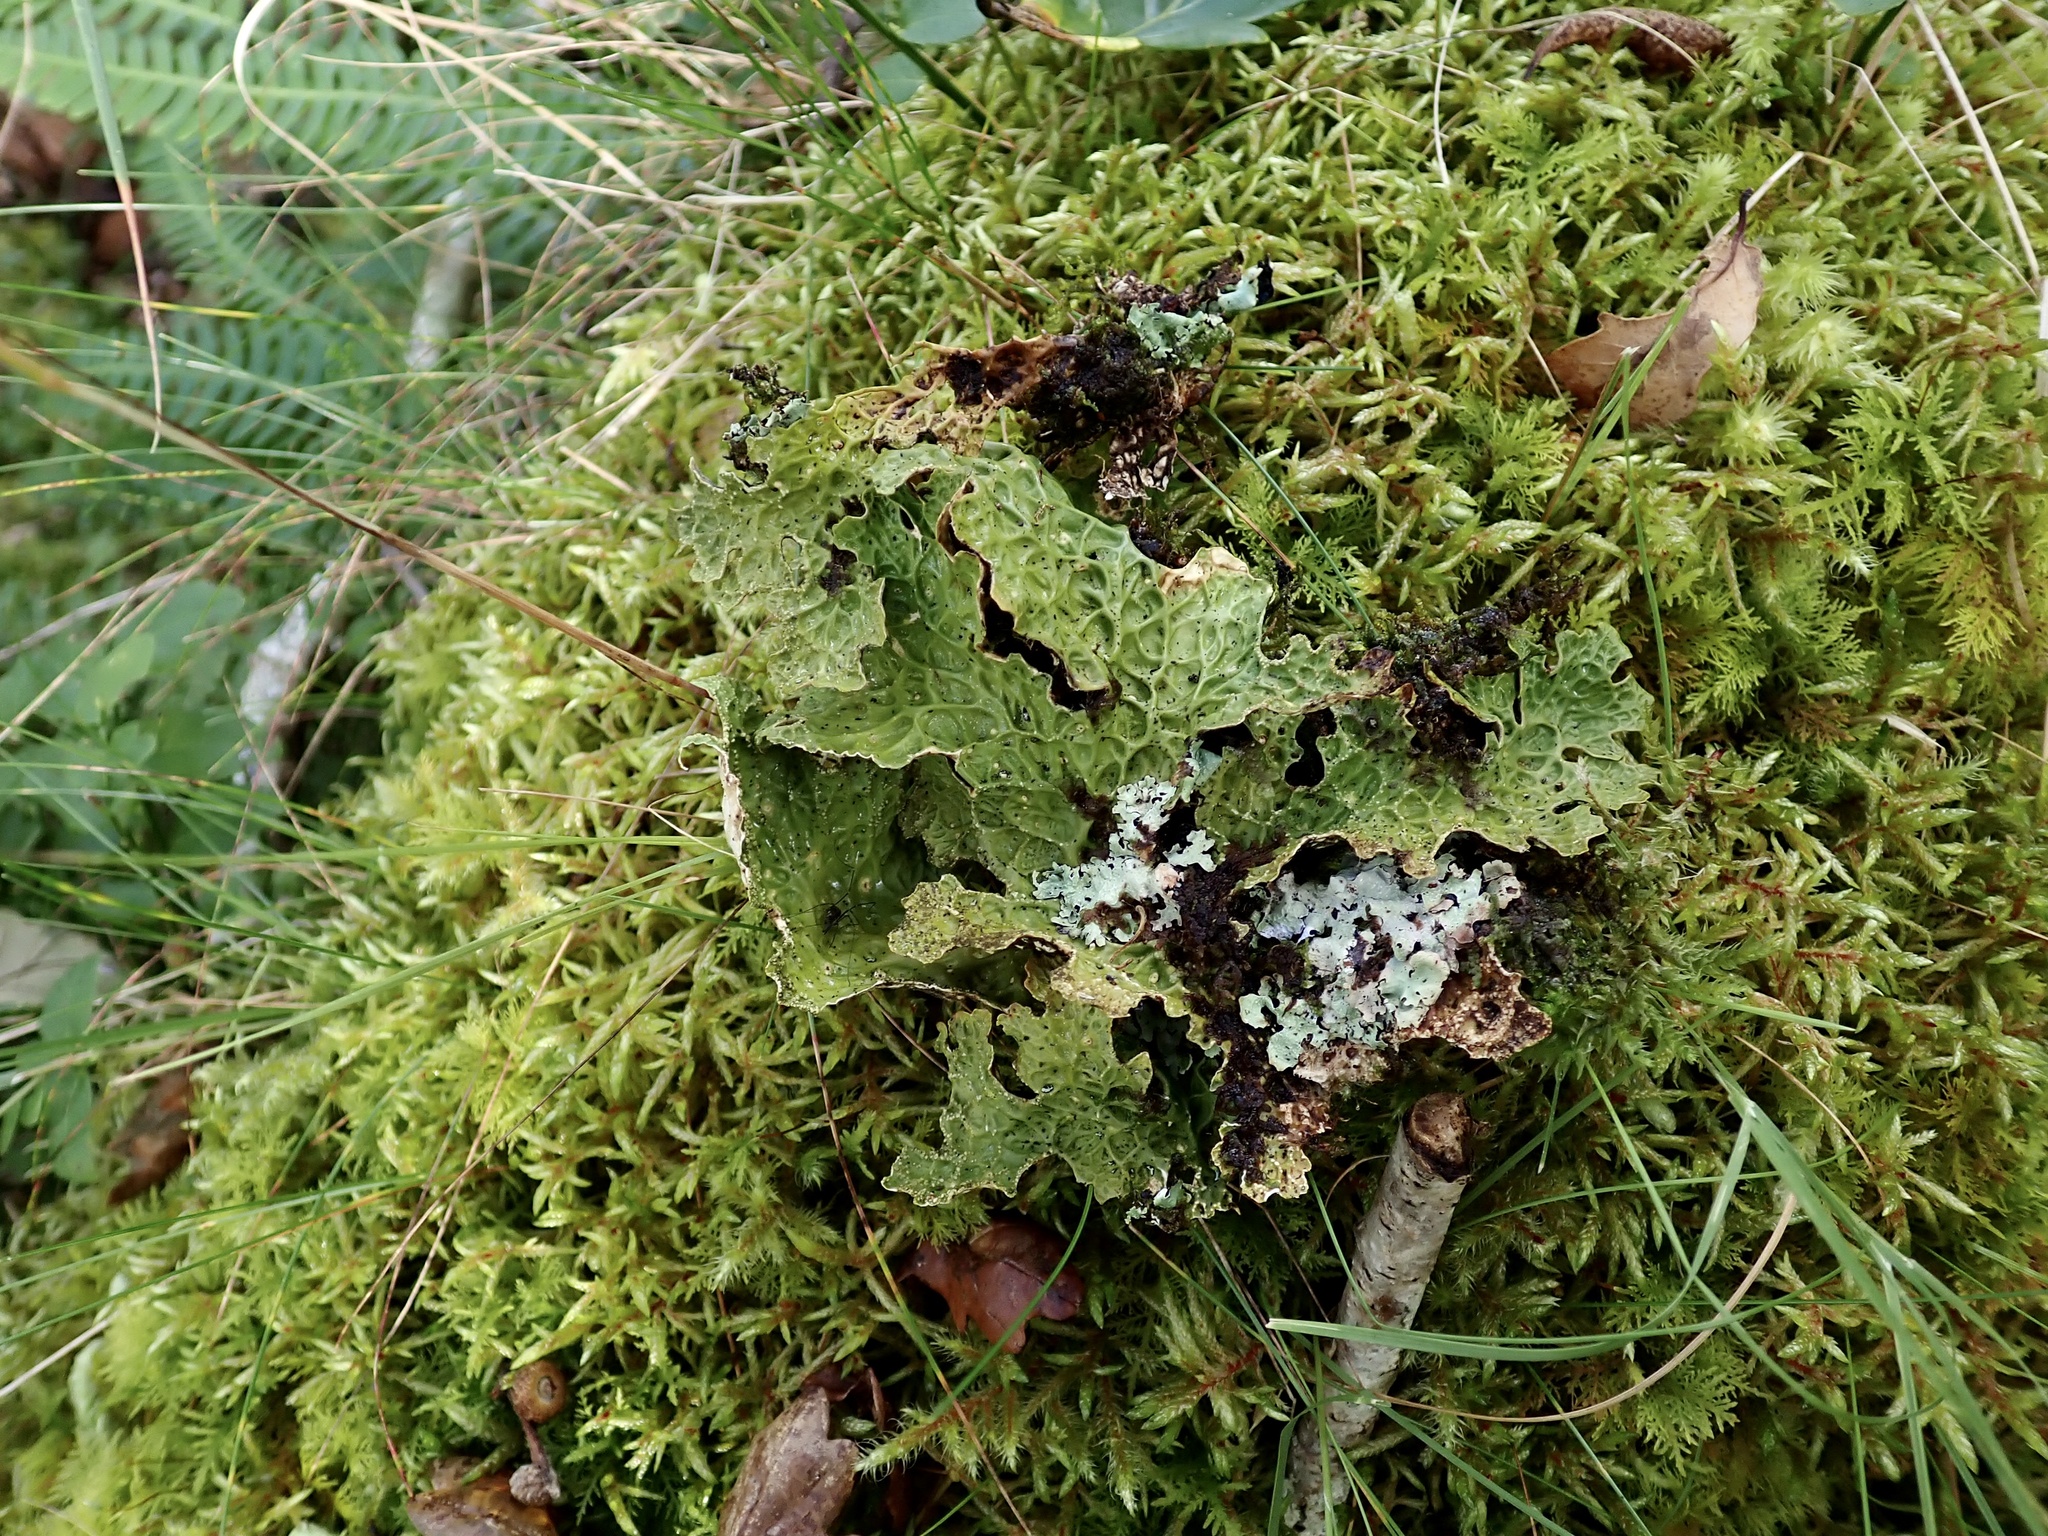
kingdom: Fungi
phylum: Ascomycota
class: Lecanoromycetes
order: Peltigerales
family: Lobariaceae
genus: Lobaria
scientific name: Lobaria pulmonaria
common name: Lungwort
